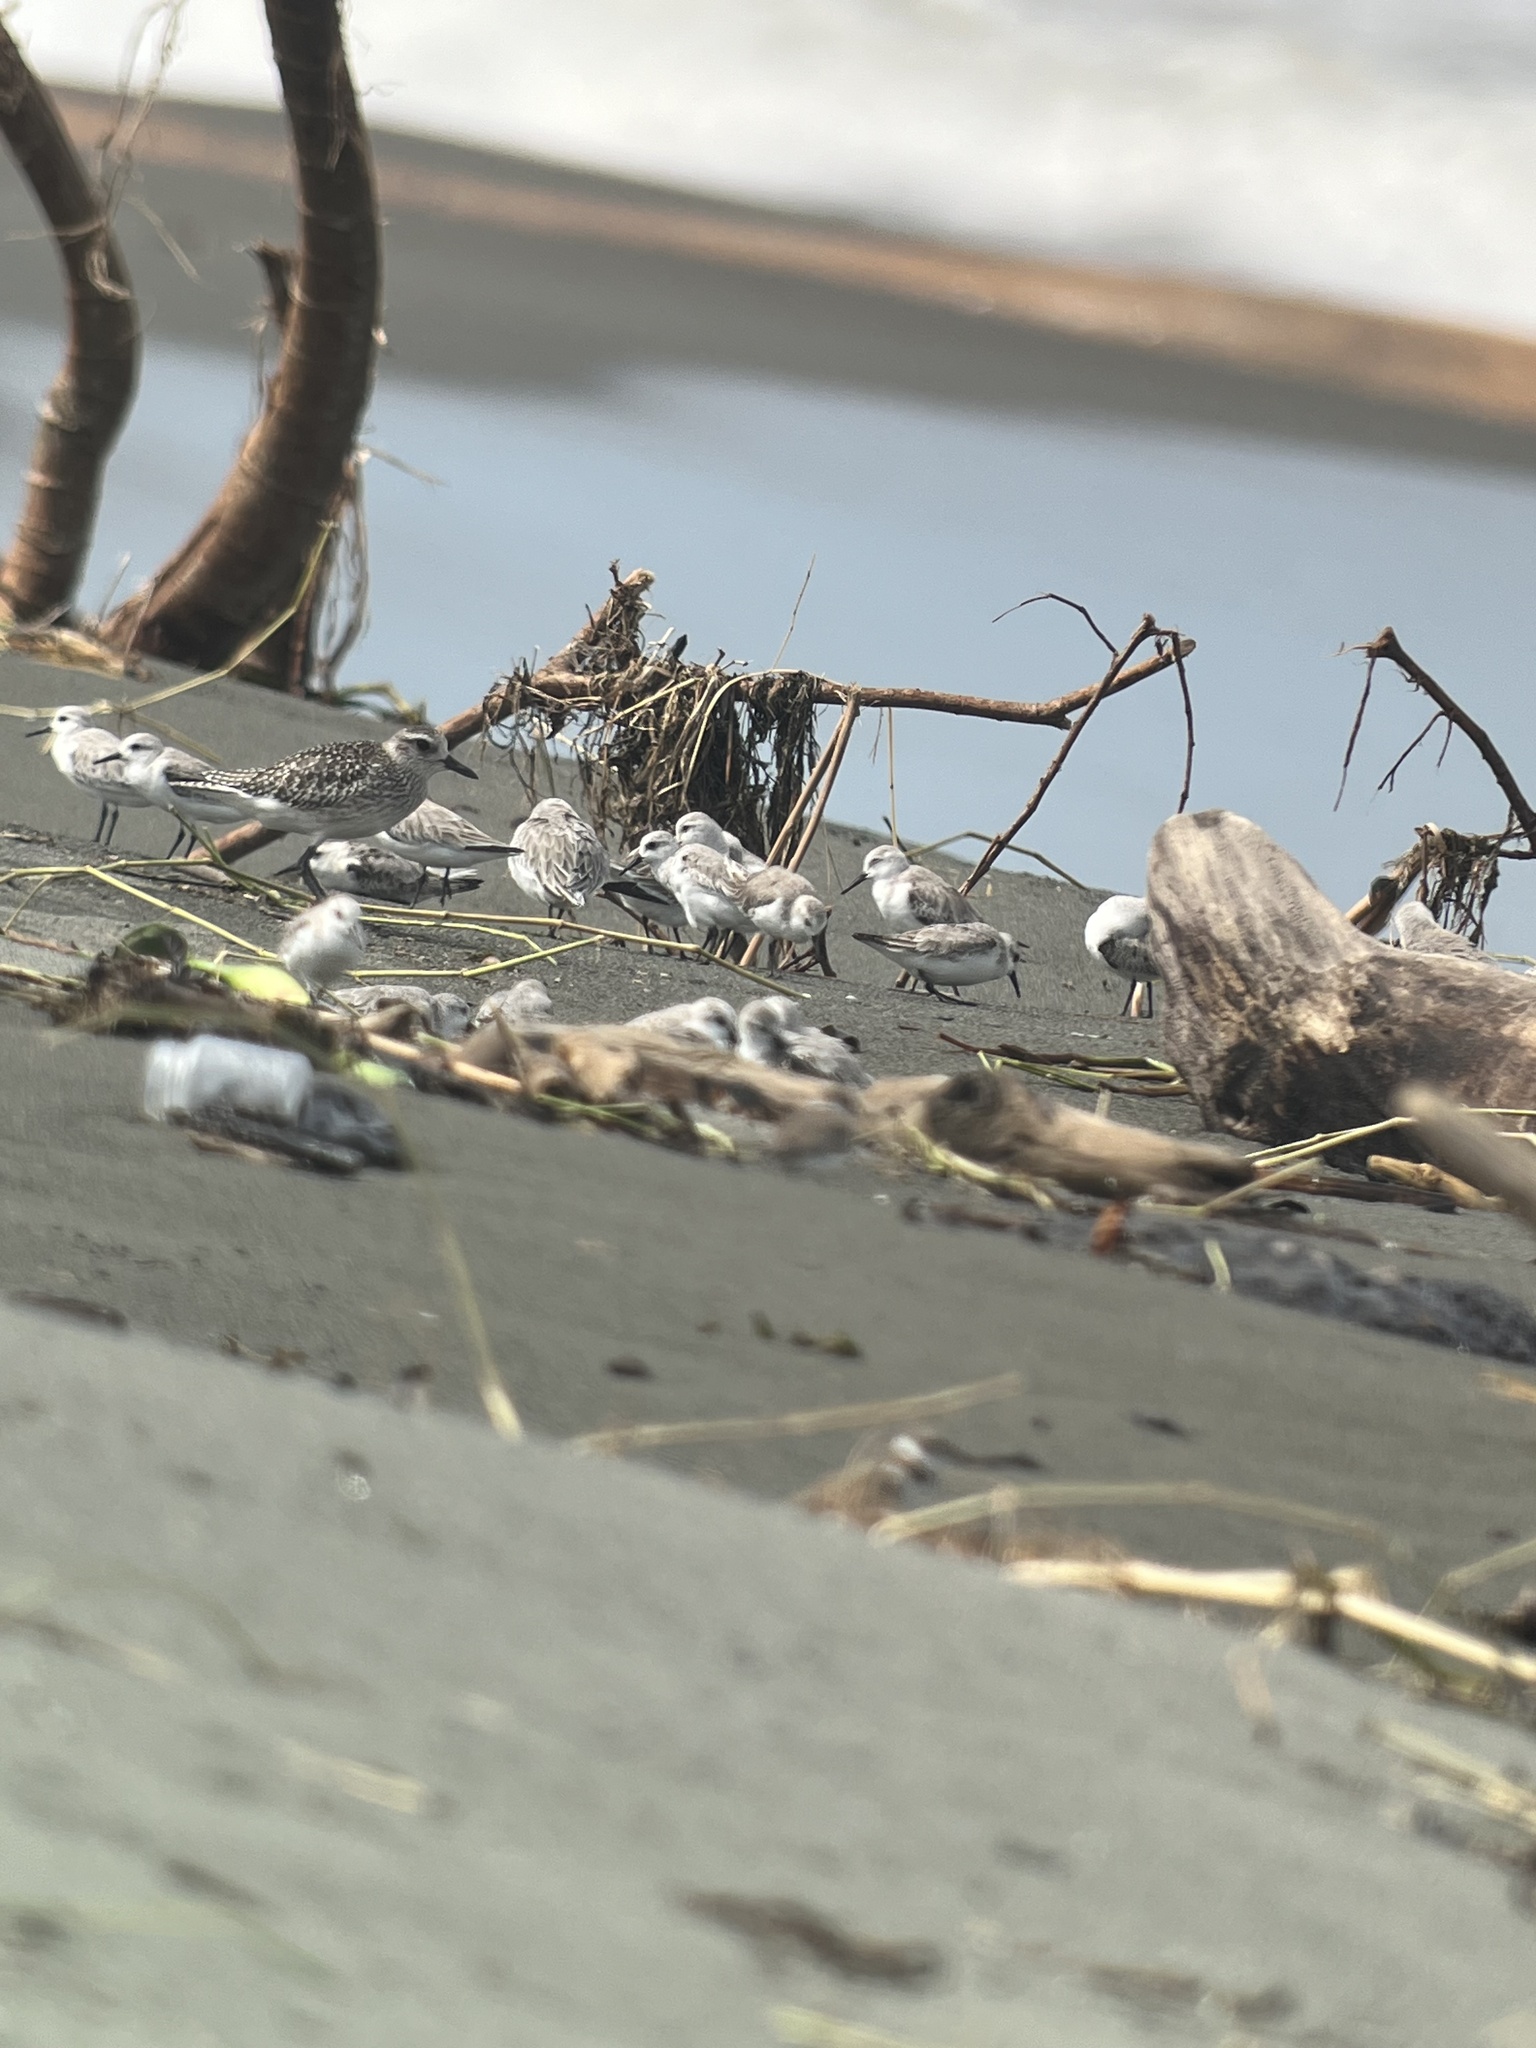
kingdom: Animalia
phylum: Chordata
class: Aves
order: Charadriiformes
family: Scolopacidae
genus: Calidris
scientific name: Calidris alba
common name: Sanderling
